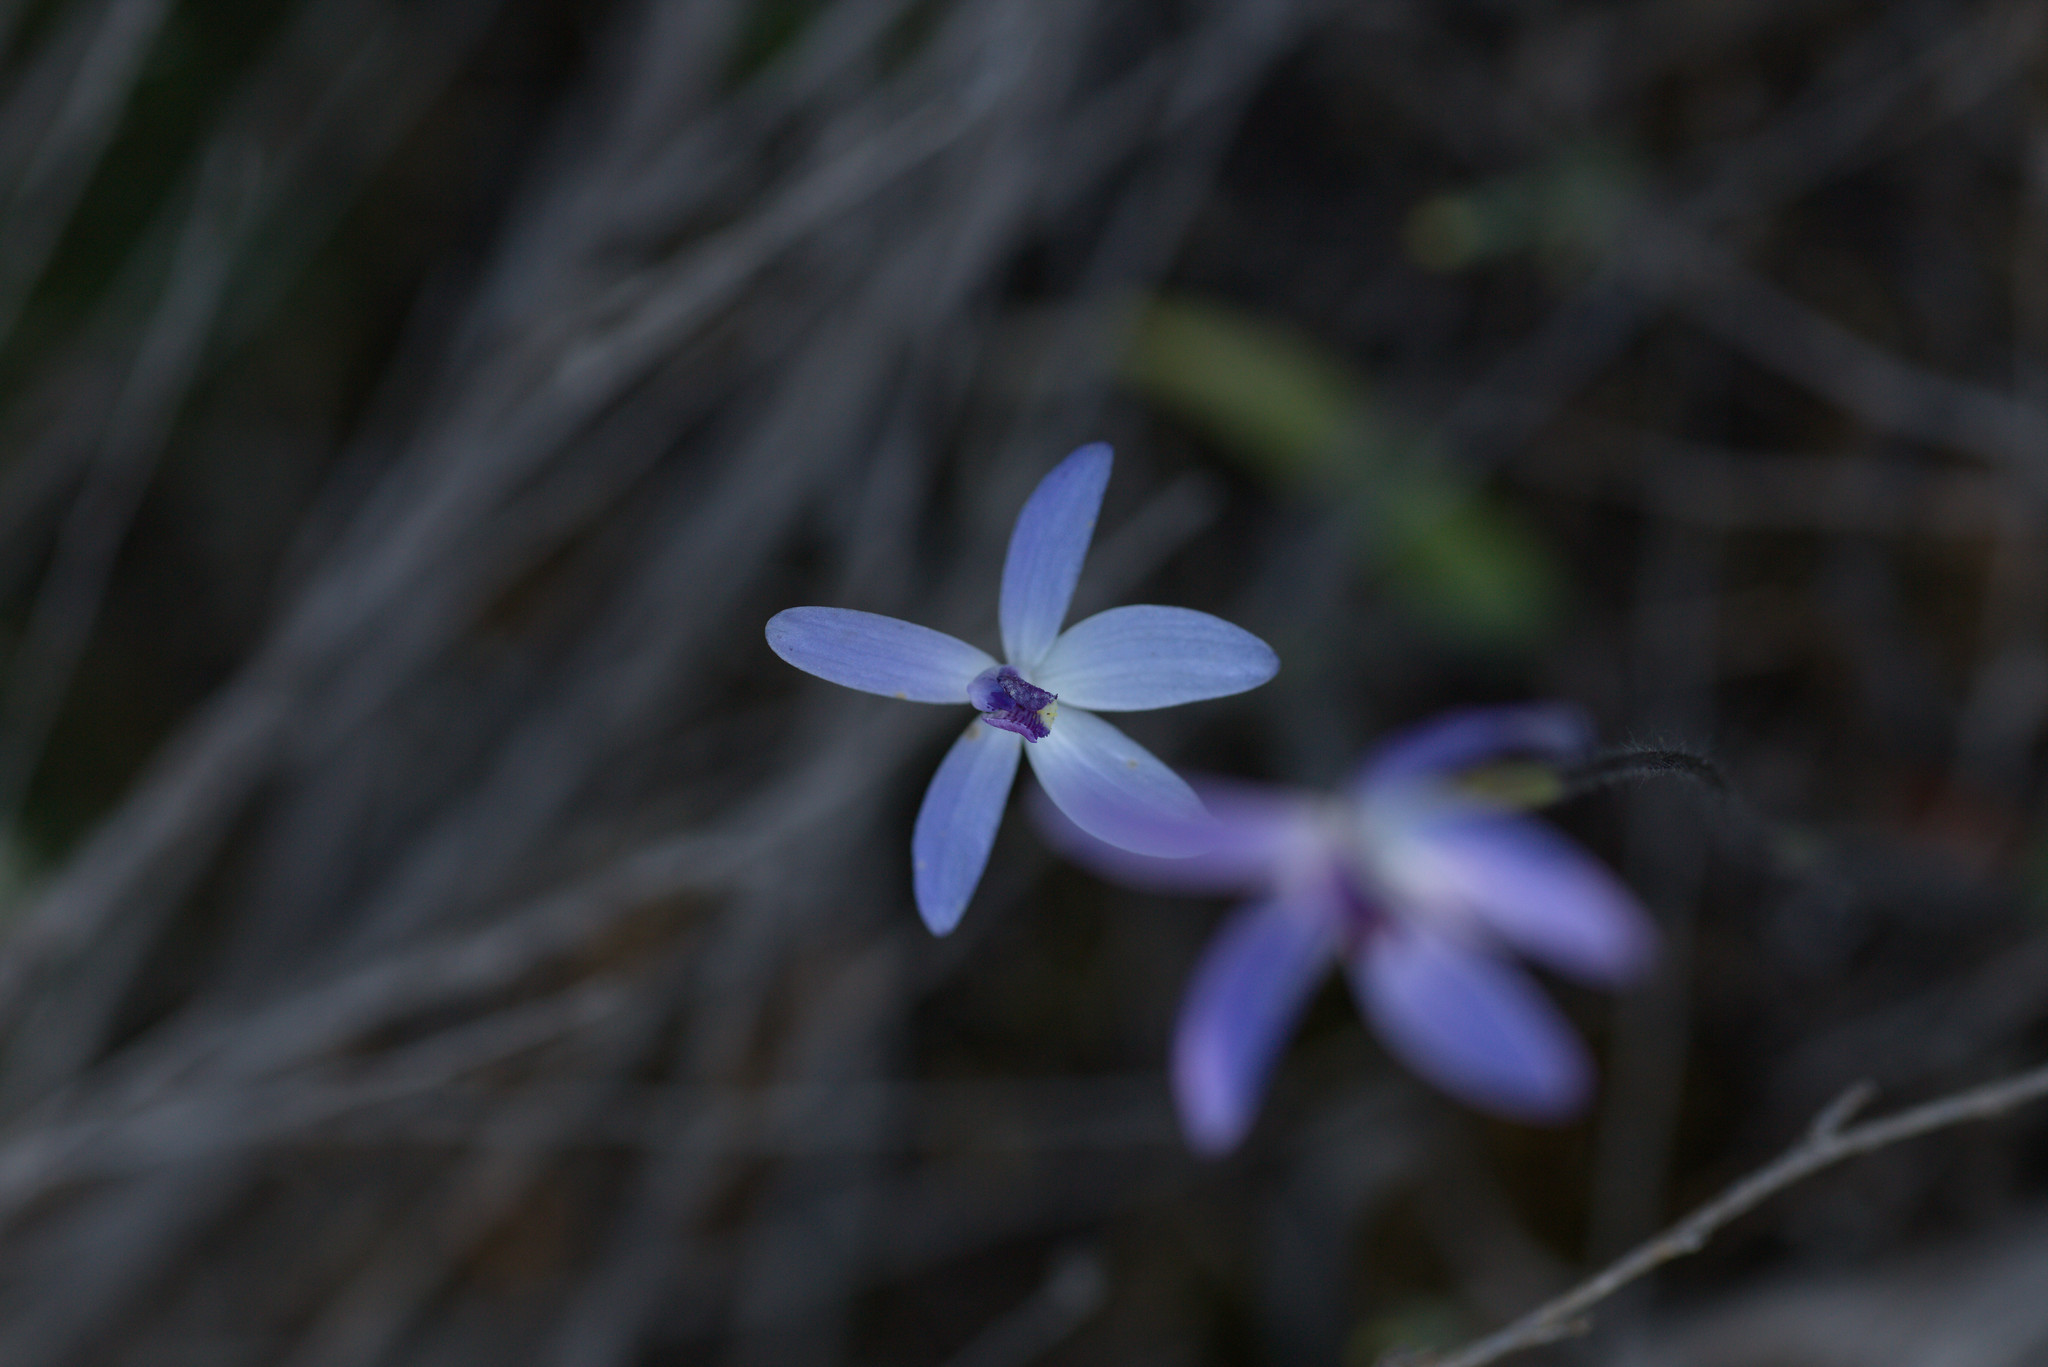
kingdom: Plantae
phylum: Tracheophyta
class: Liliopsida
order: Asparagales
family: Orchidaceae
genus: Caladenia
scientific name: Caladenia amplexans
